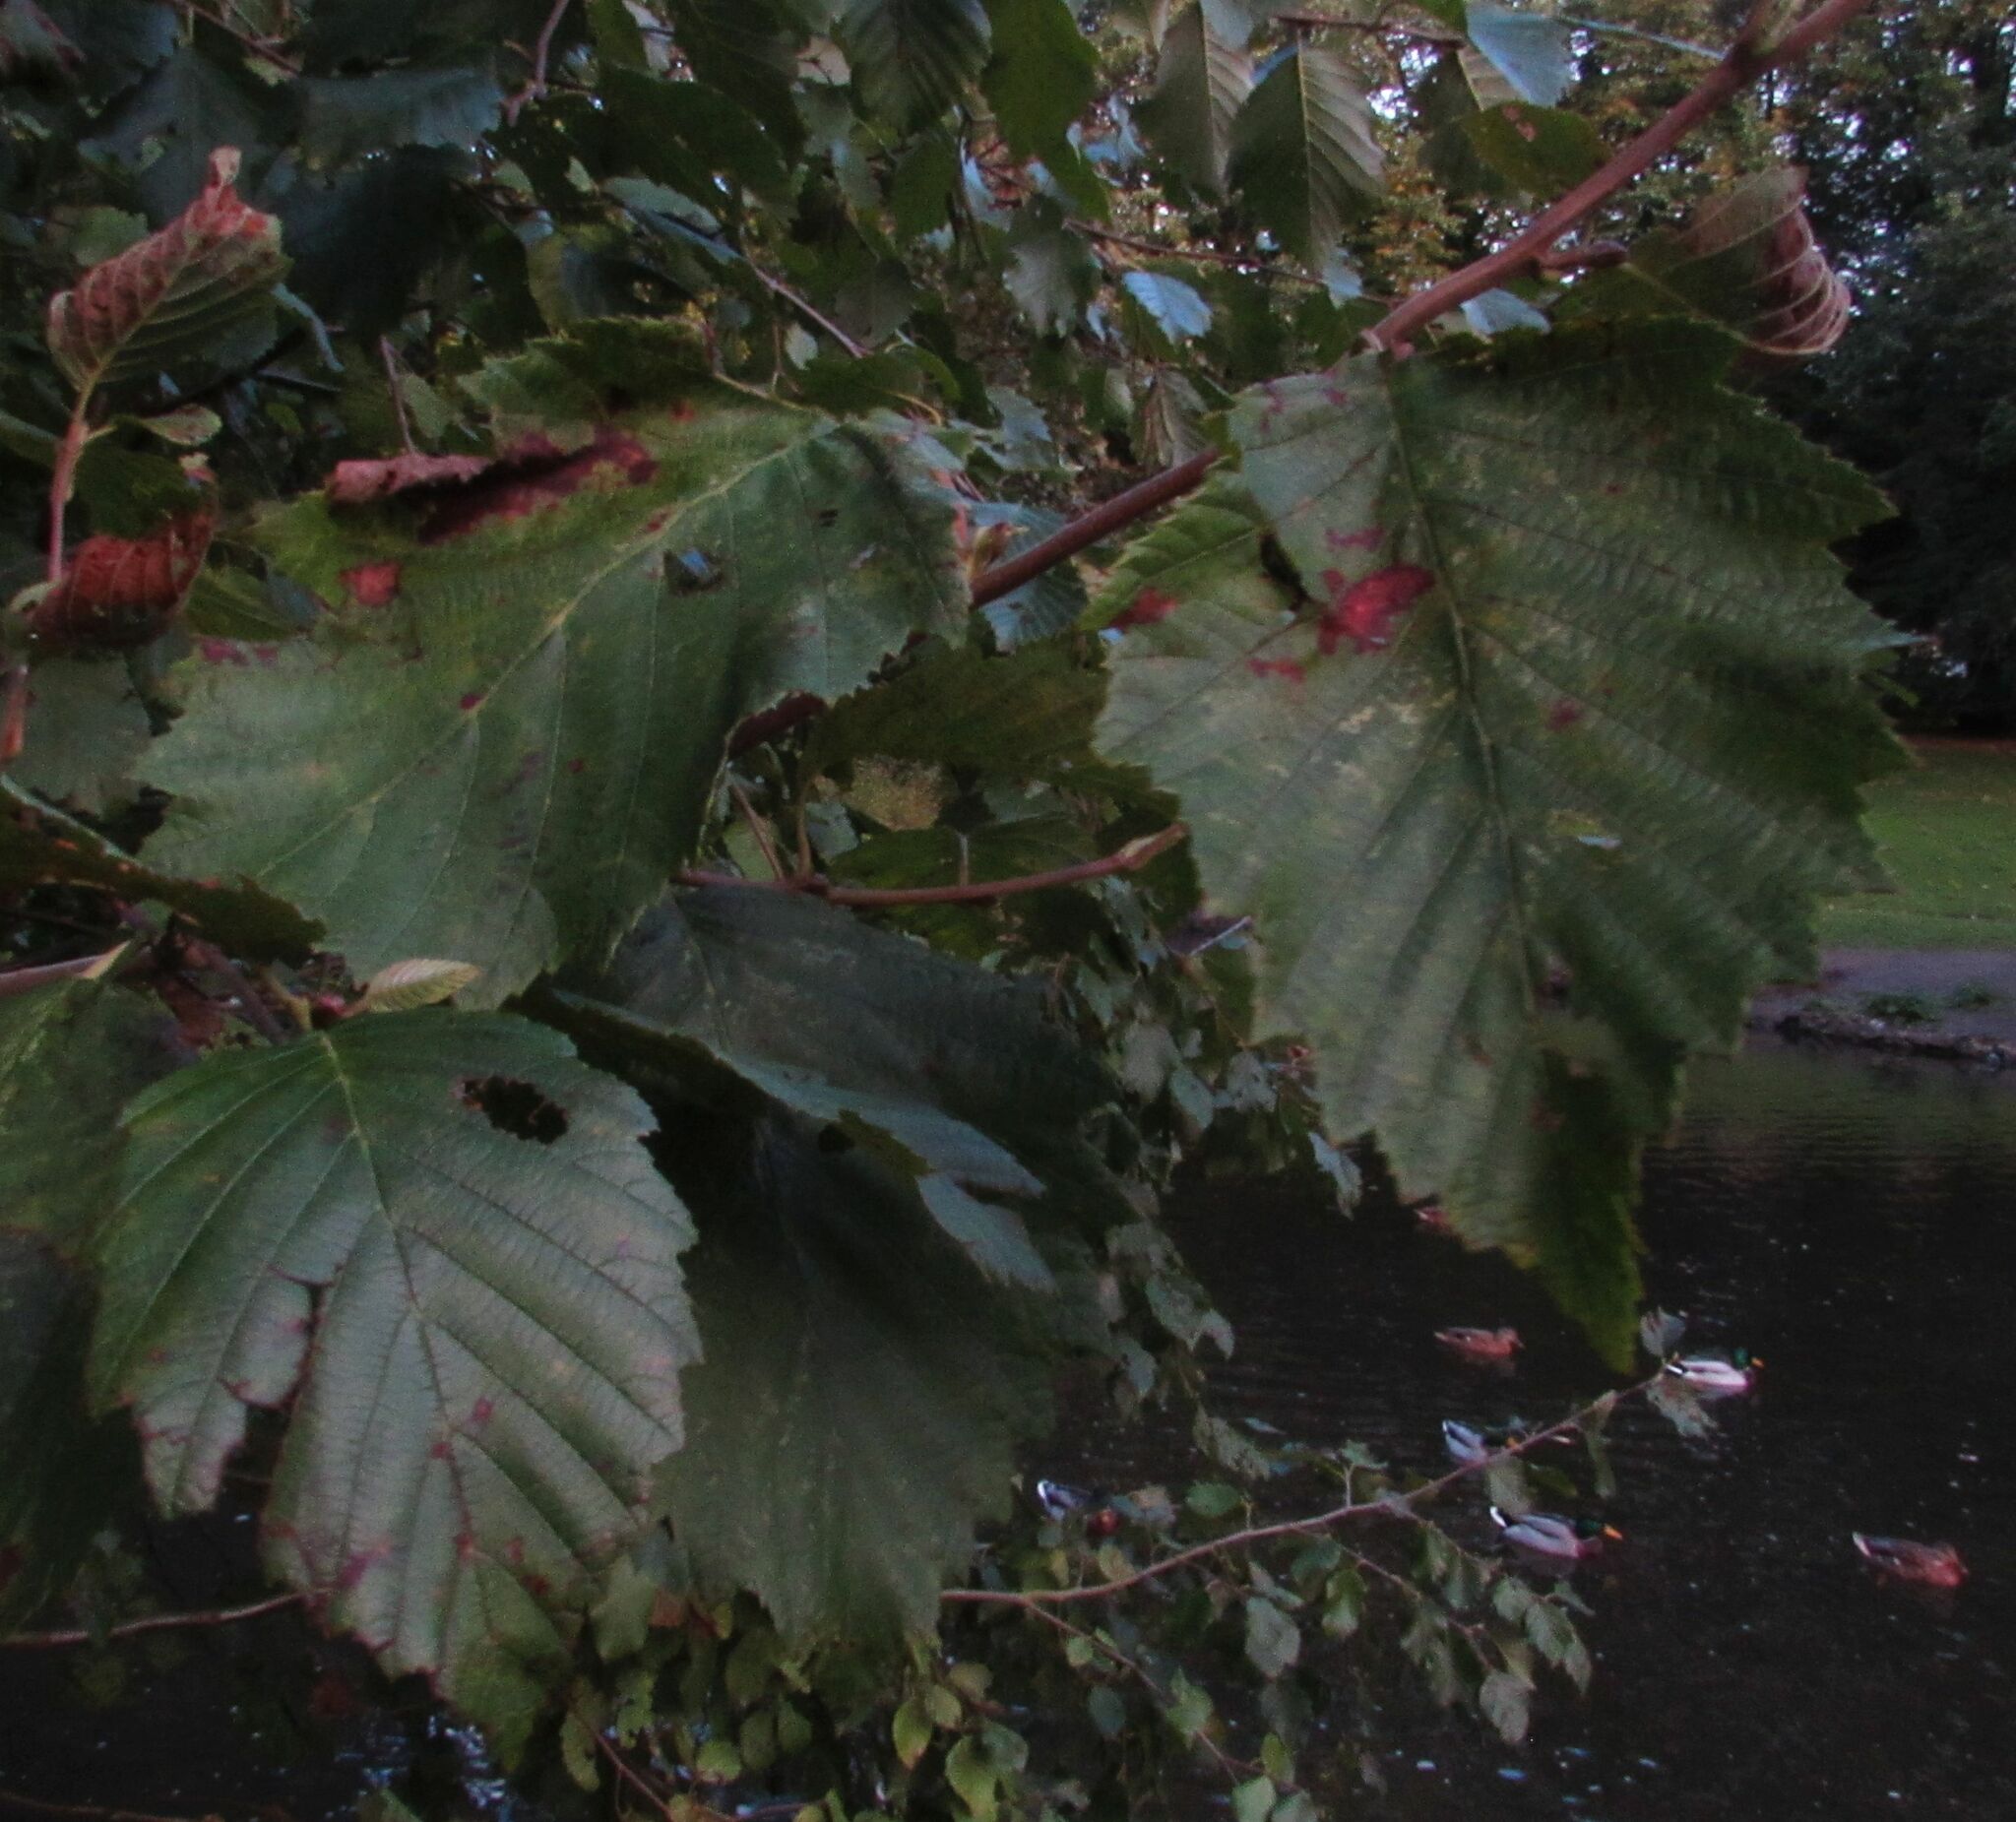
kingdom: Plantae
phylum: Tracheophyta
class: Magnoliopsida
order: Fagales
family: Betulaceae
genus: Alnus
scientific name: Alnus incana
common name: Grey alder
